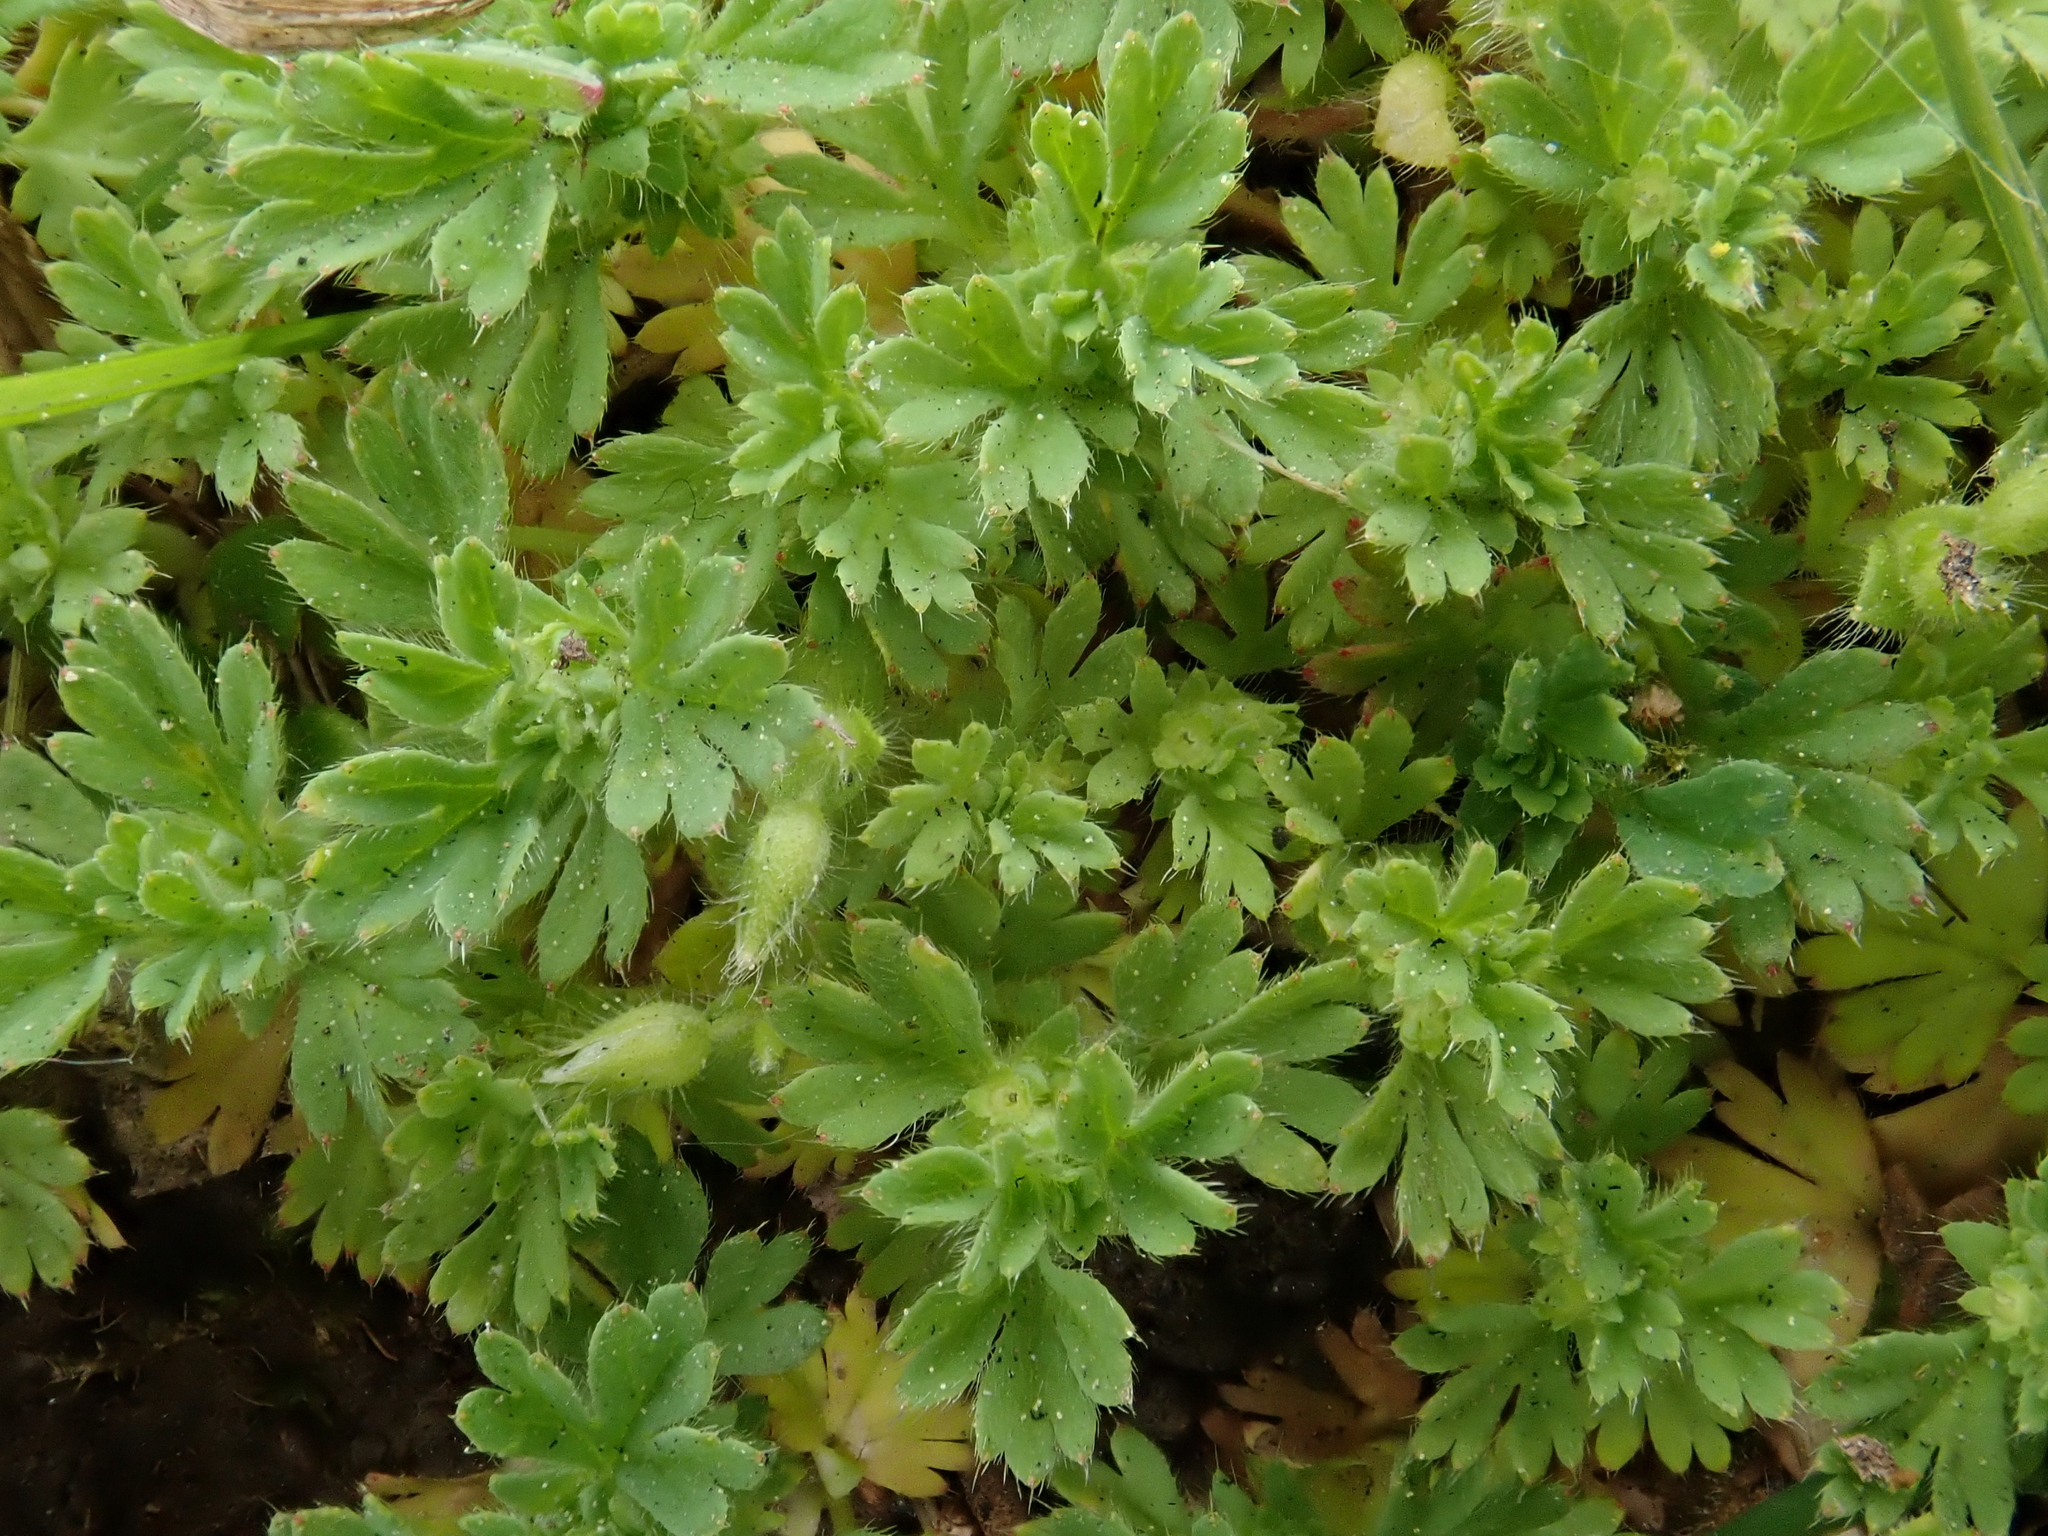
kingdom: Plantae
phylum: Tracheophyta
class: Magnoliopsida
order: Rosales
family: Rosaceae
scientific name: Rosaceae
